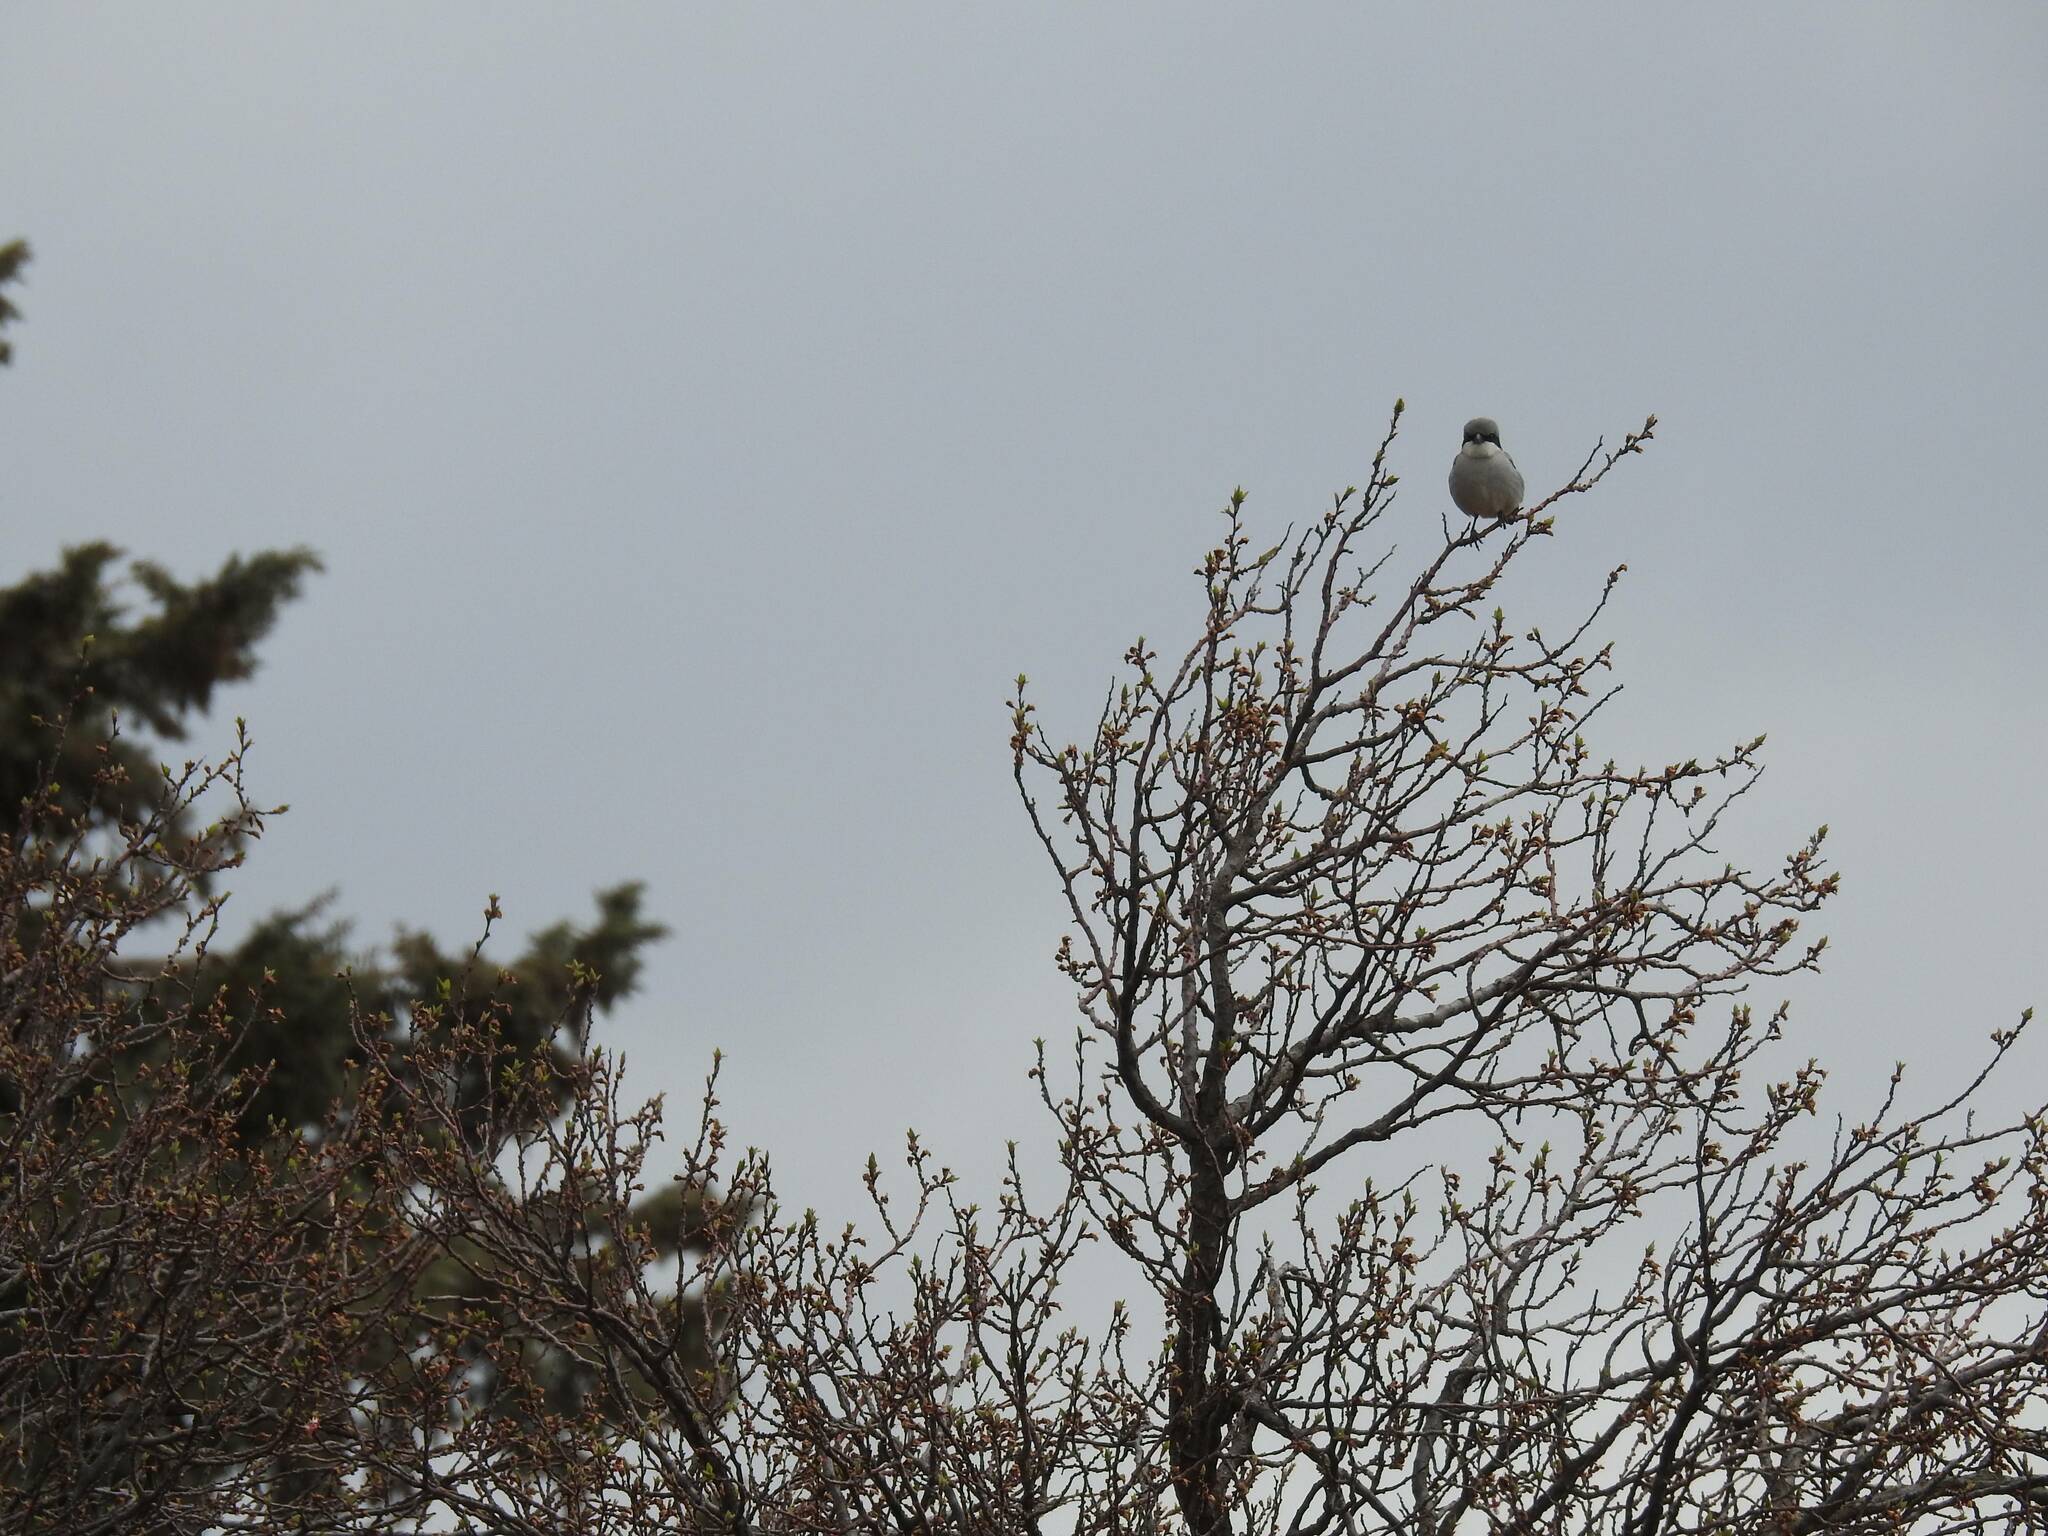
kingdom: Animalia
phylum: Chordata
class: Aves
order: Passeriformes
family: Laniidae
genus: Lanius
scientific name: Lanius excubitor
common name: Great grey shrike
